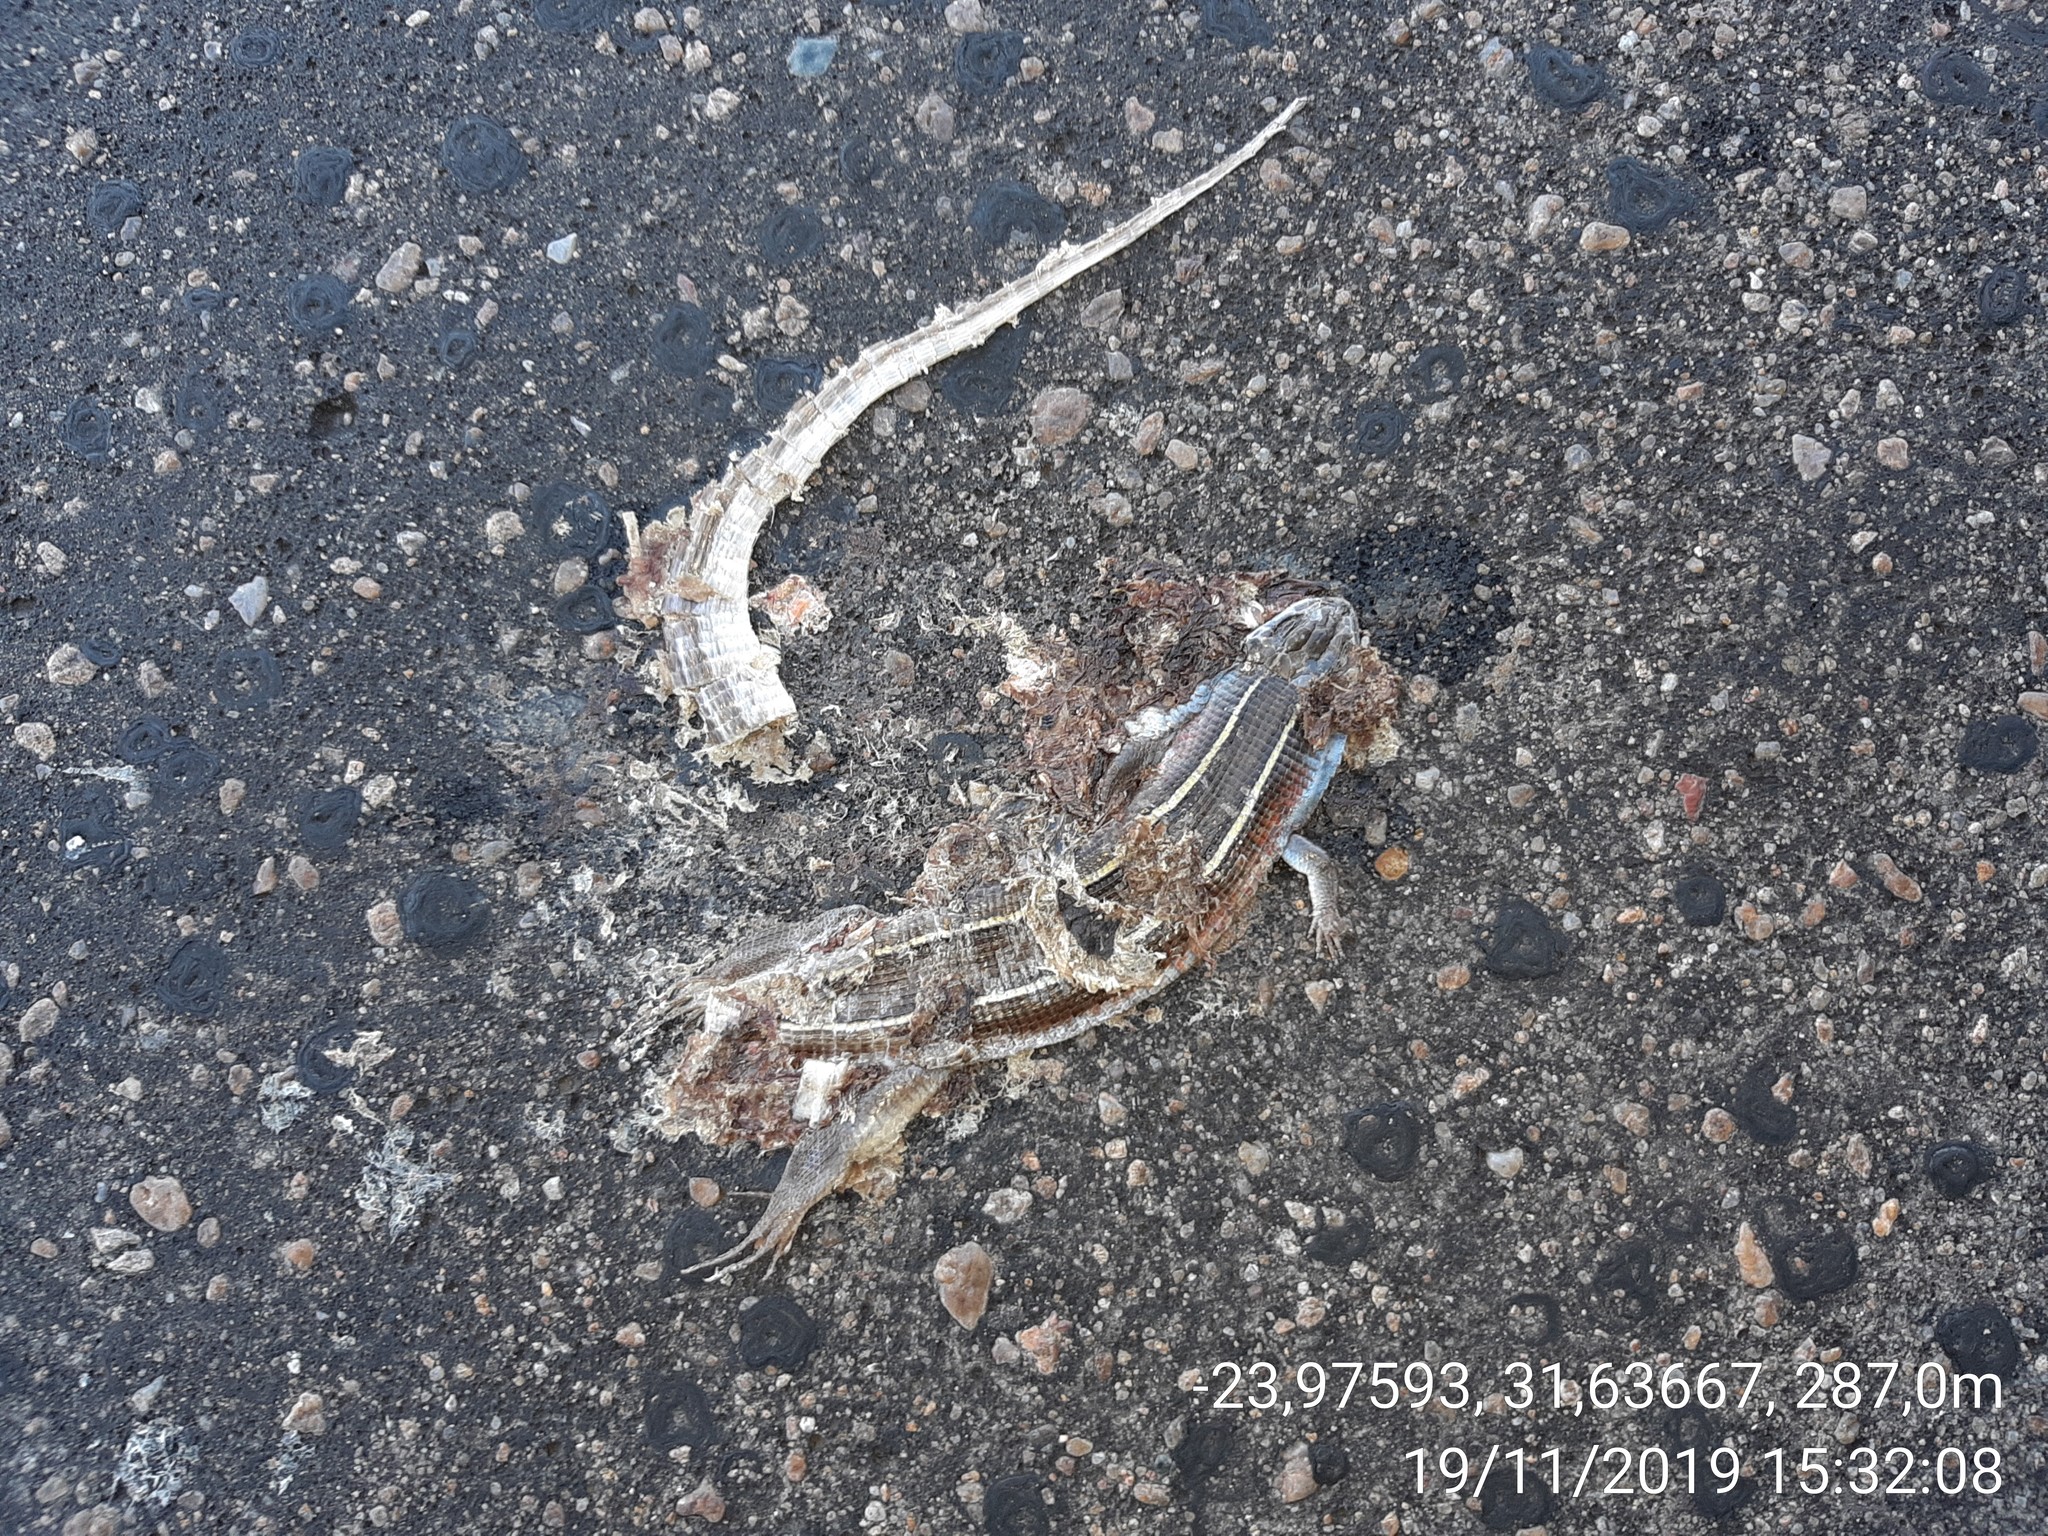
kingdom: Animalia
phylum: Chordata
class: Squamata
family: Gerrhosauridae
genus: Gerrhosaurus
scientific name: Gerrhosaurus flavigularis
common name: Yellow-throated plated lizard
